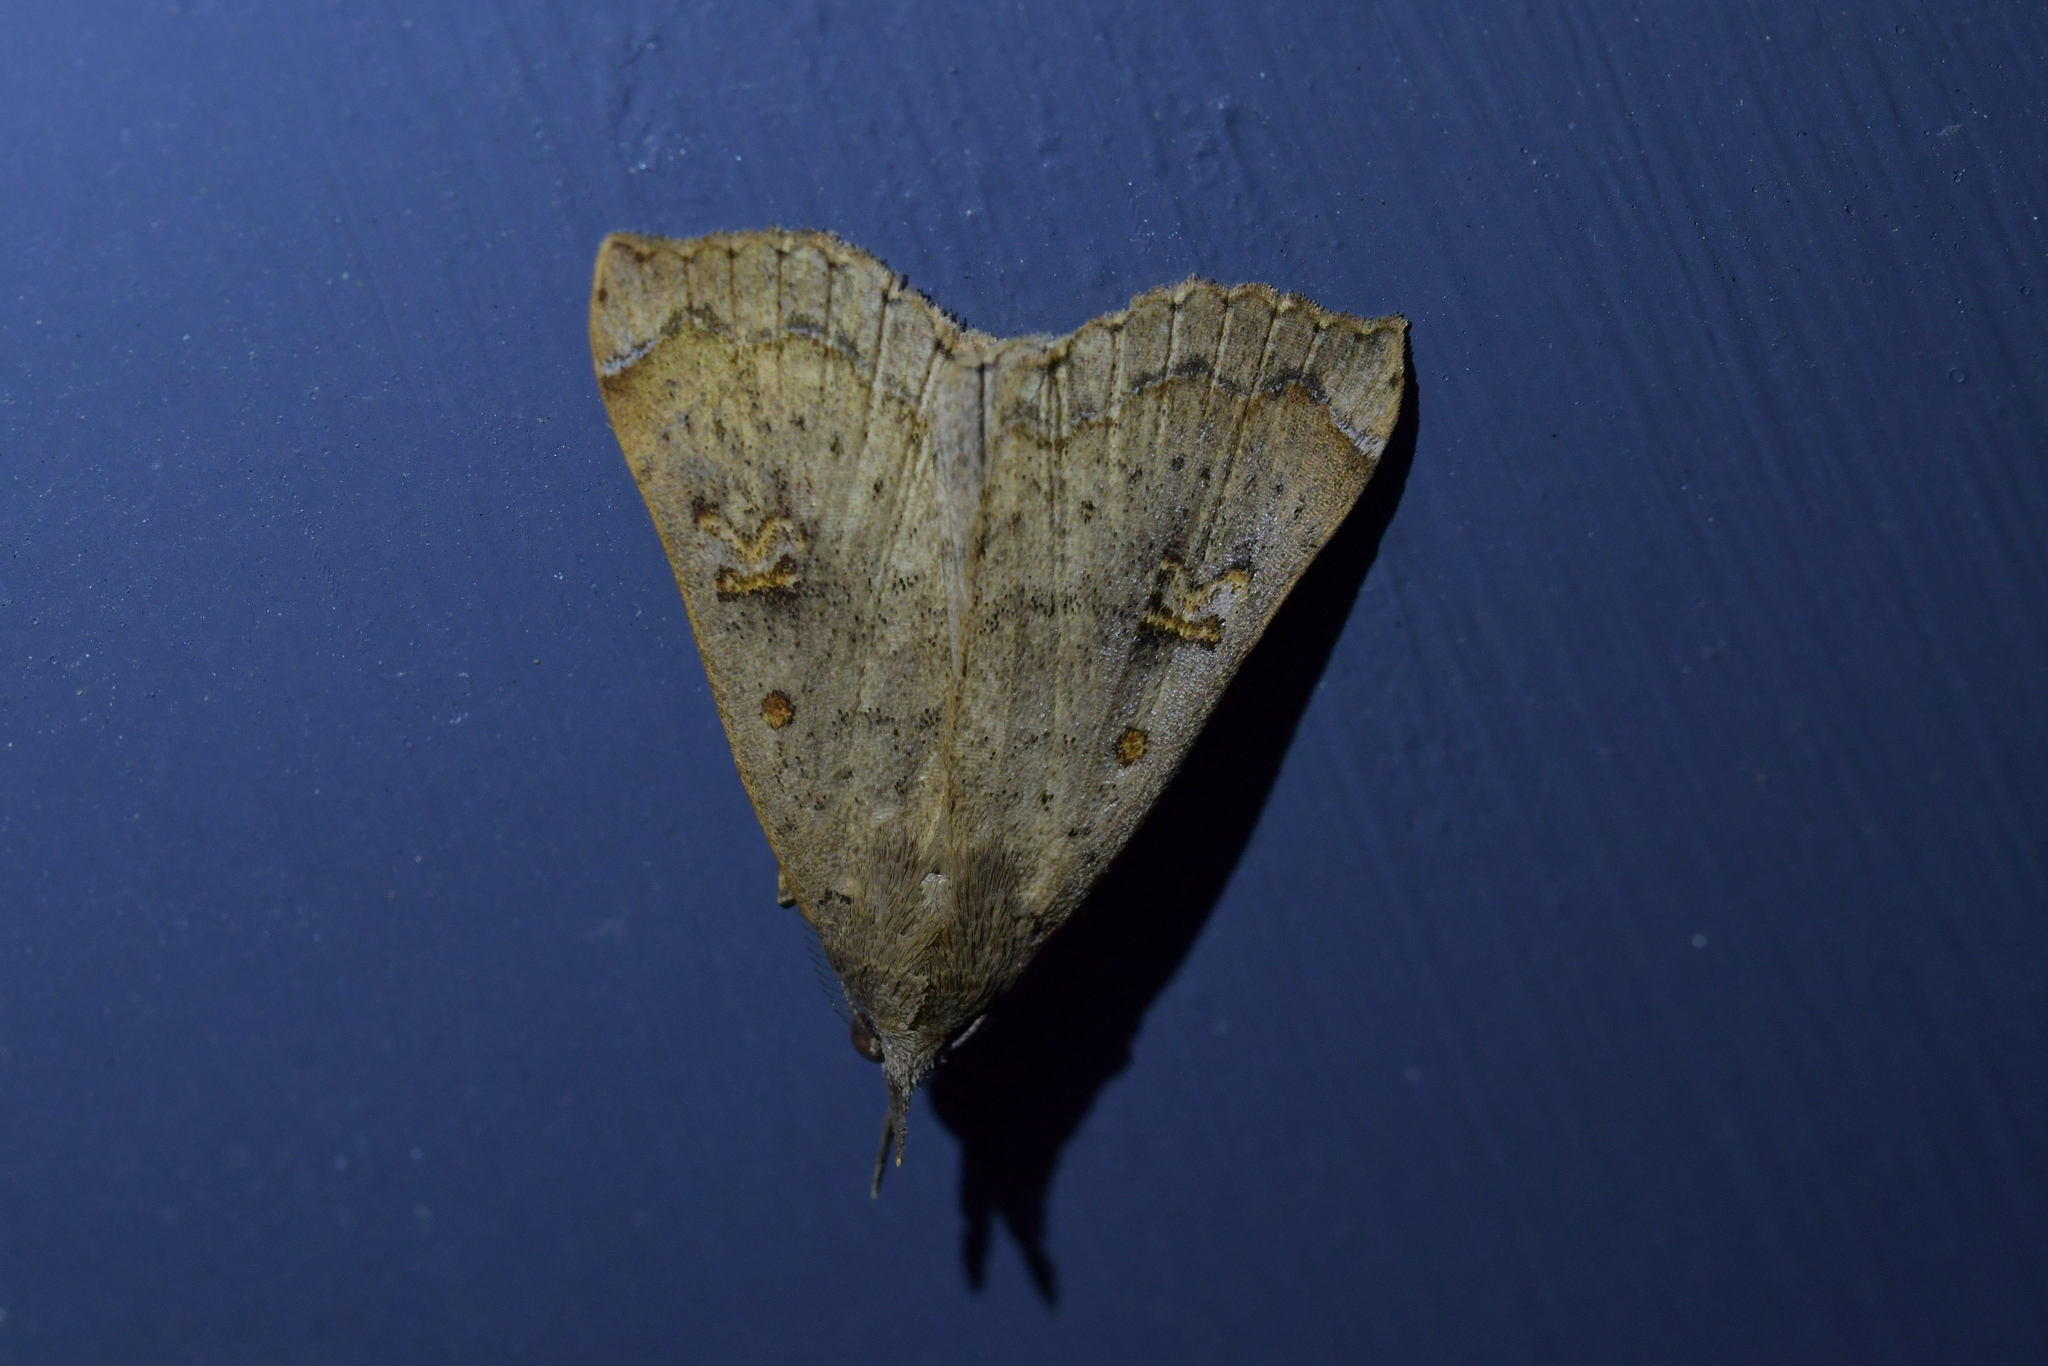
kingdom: Animalia
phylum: Arthropoda
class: Insecta
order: Lepidoptera
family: Erebidae
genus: Rhapsa
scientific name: Rhapsa scotosialis
